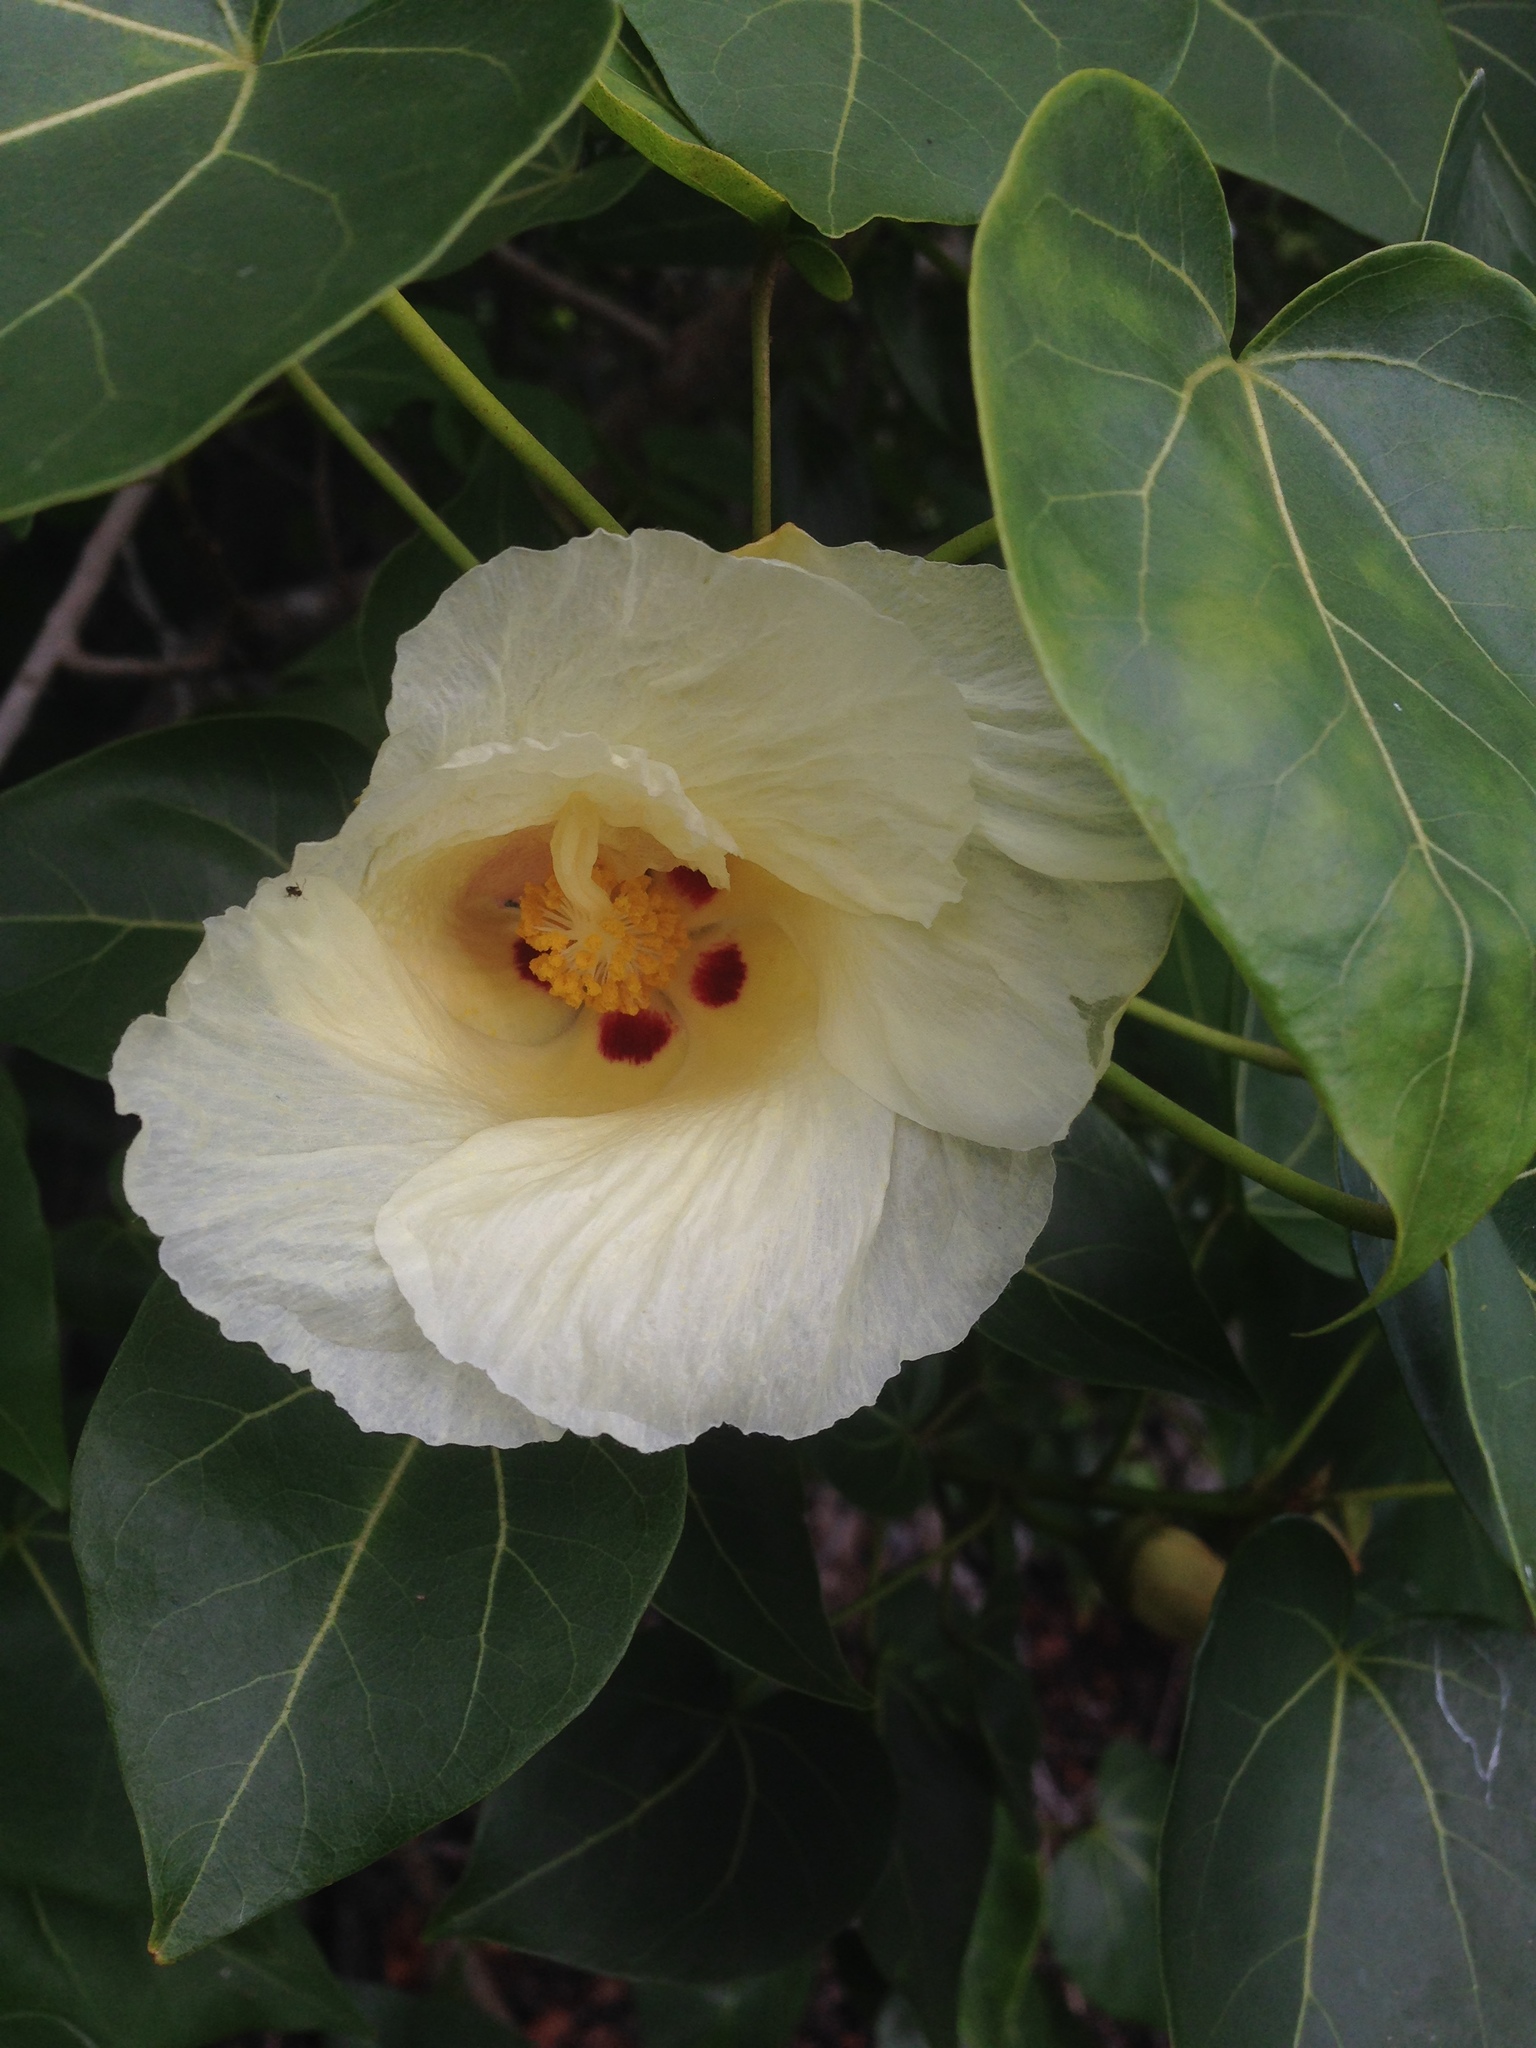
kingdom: Plantae
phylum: Tracheophyta
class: Magnoliopsida
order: Malvales
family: Malvaceae
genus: Thespesia
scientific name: Thespesia populnea
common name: Seaside mahoe
